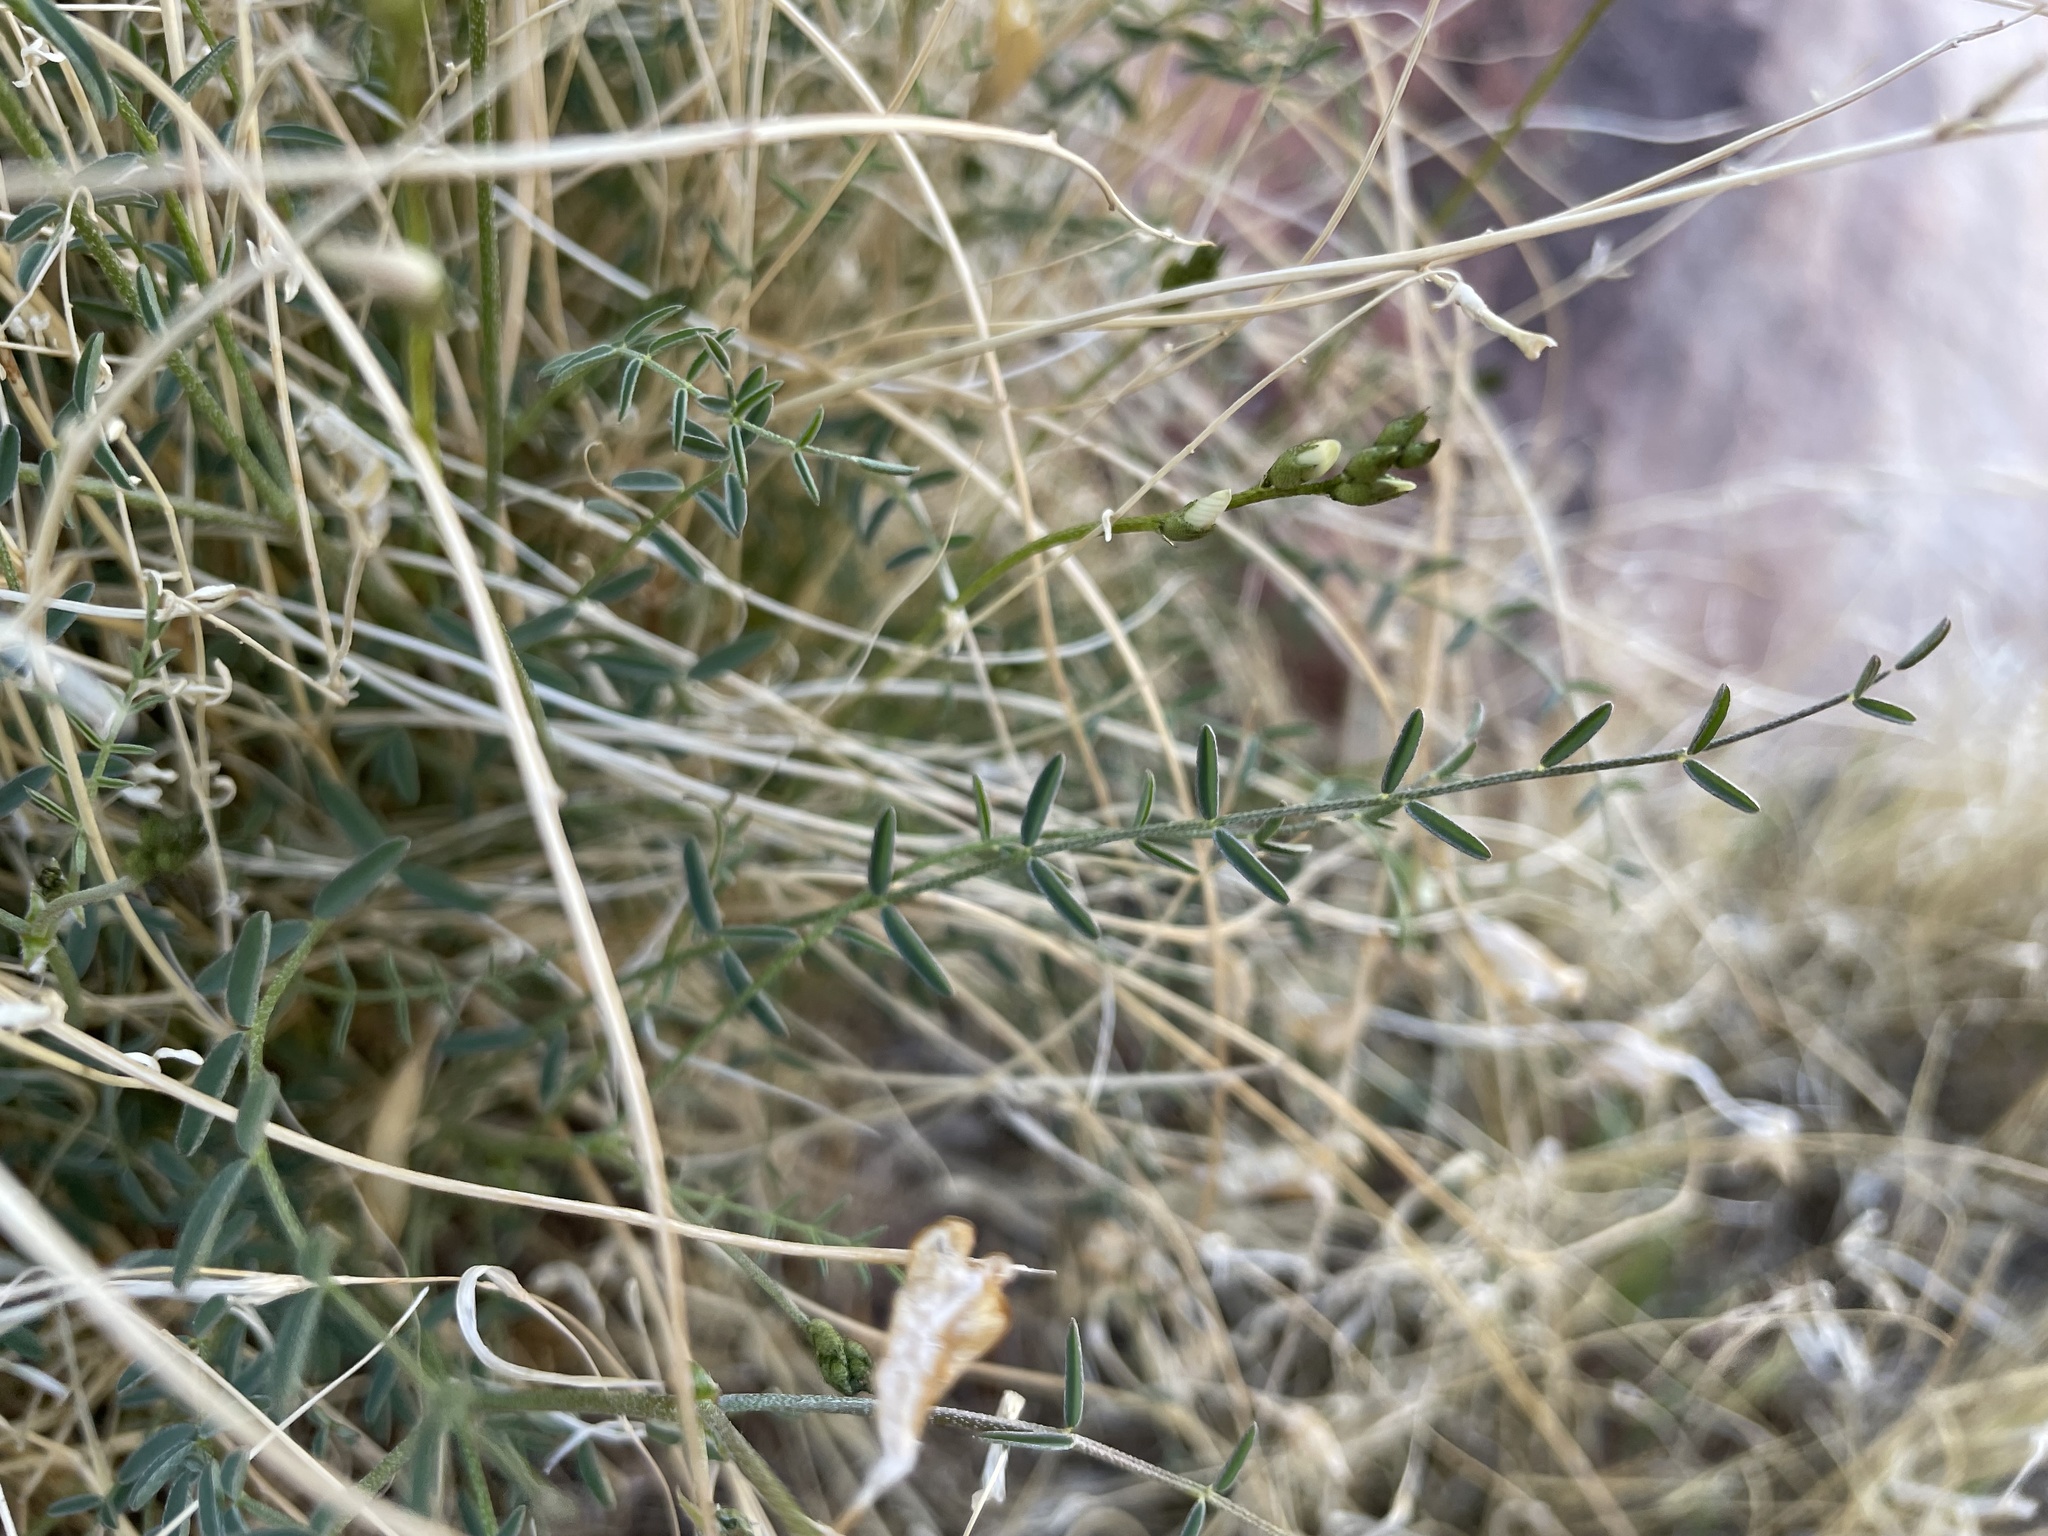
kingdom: Plantae
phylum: Tracheophyta
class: Magnoliopsida
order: Fabales
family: Fabaceae
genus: Astragalus
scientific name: Astragalus remotus
